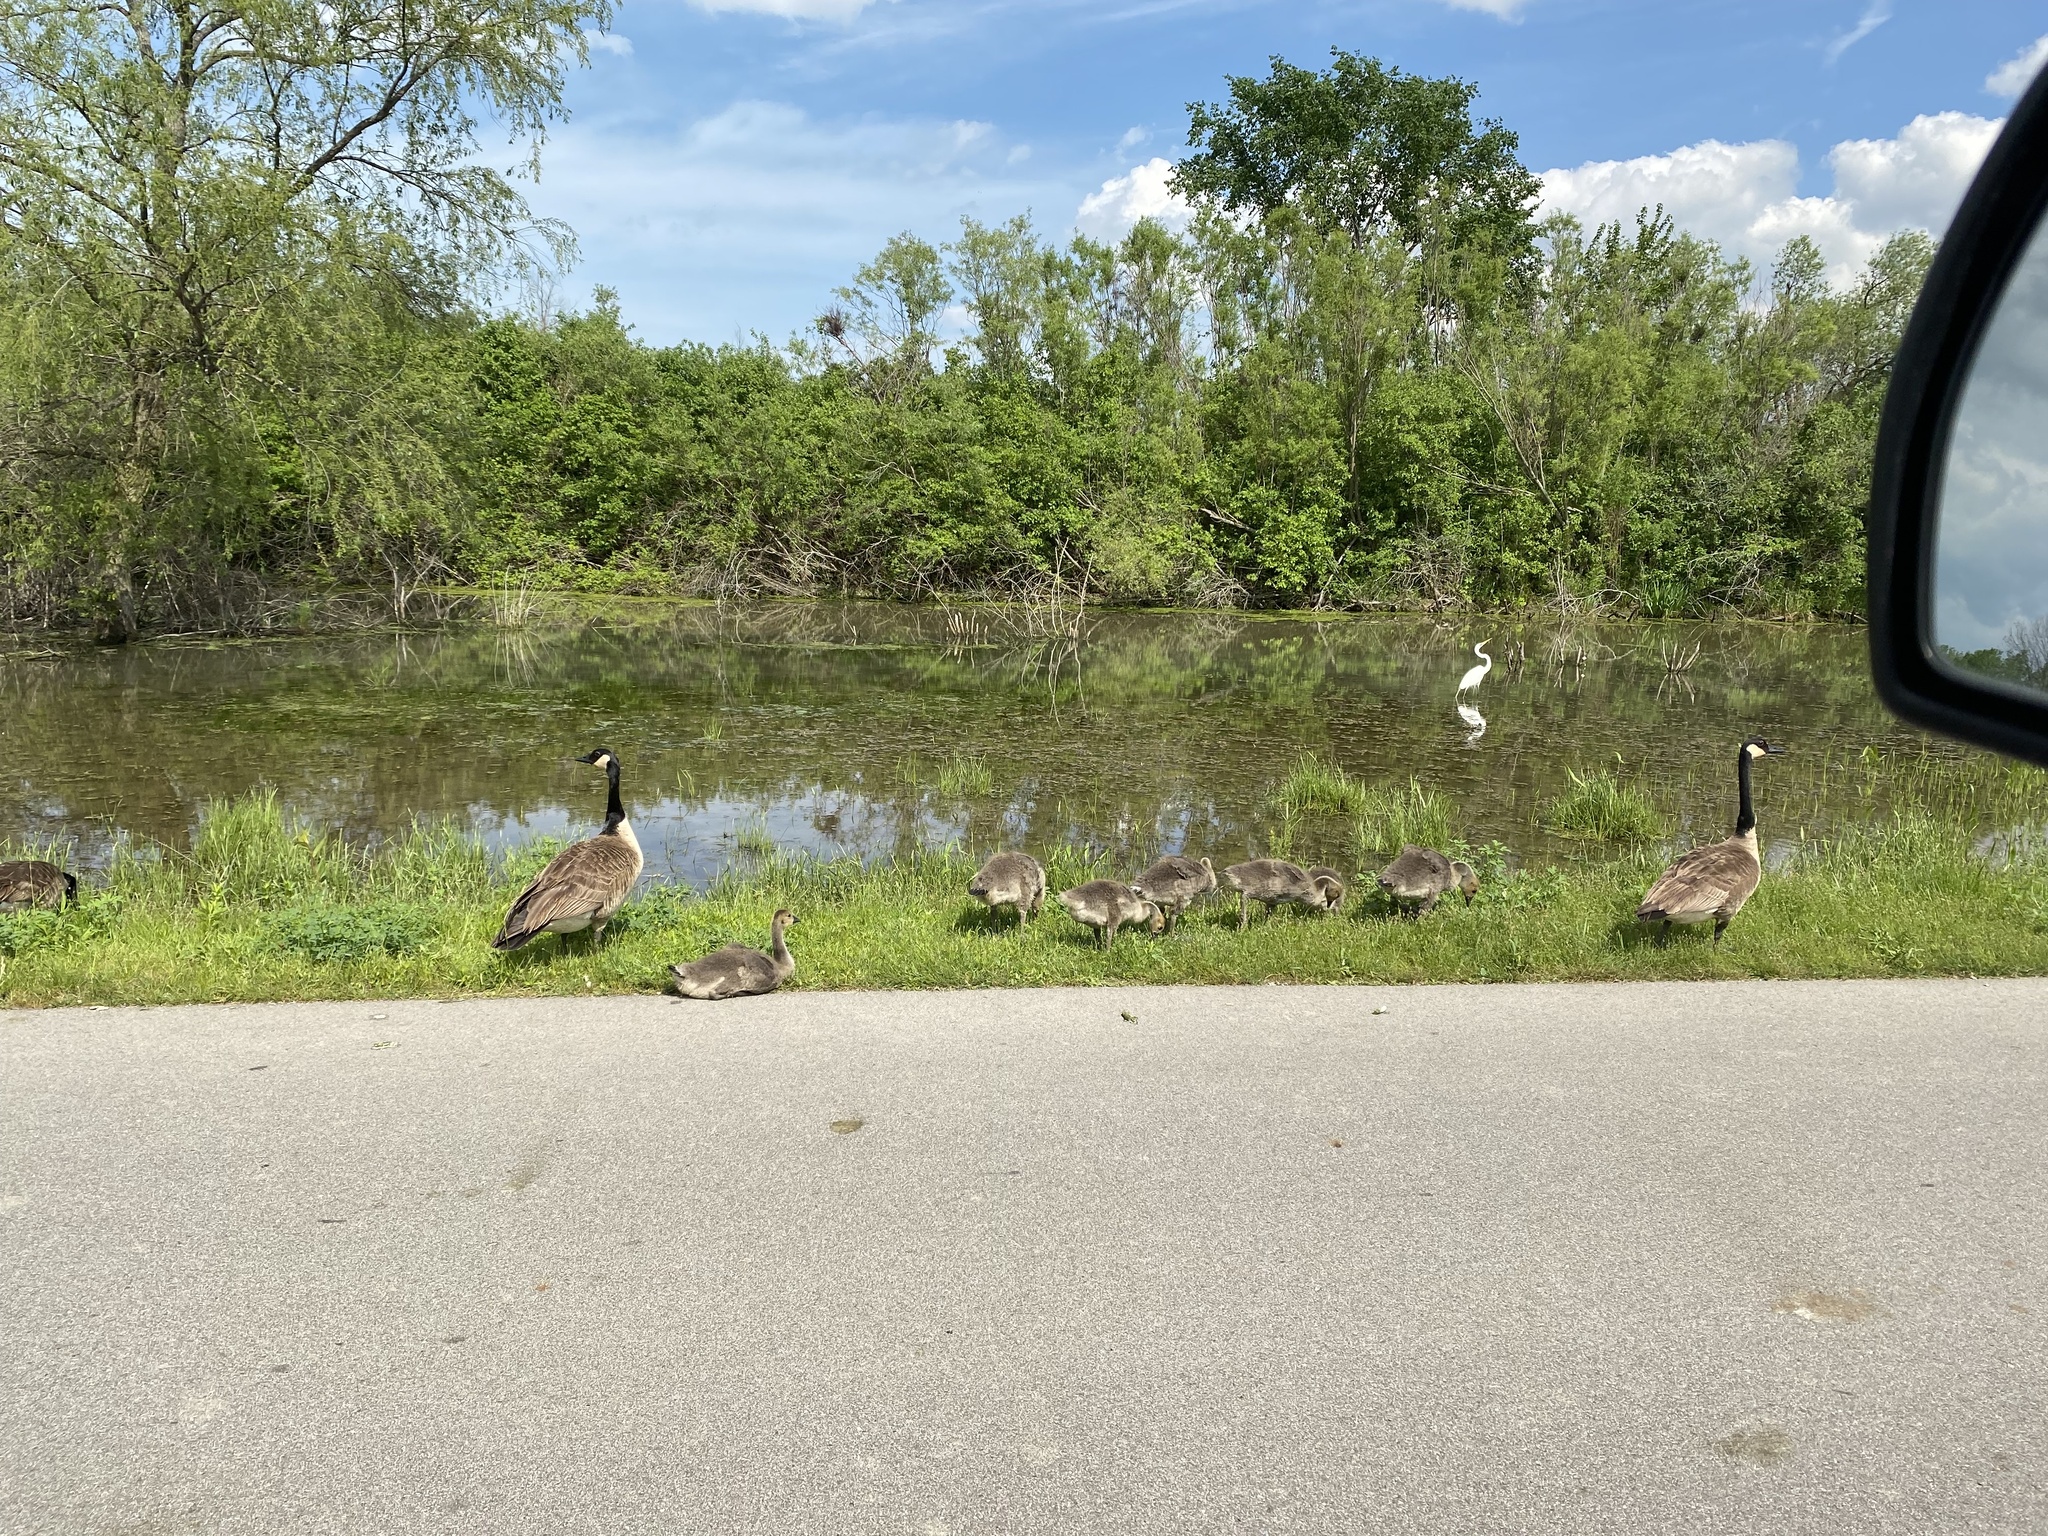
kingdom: Animalia
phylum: Chordata
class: Aves
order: Anseriformes
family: Anatidae
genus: Branta
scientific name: Branta canadensis
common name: Canada goose
